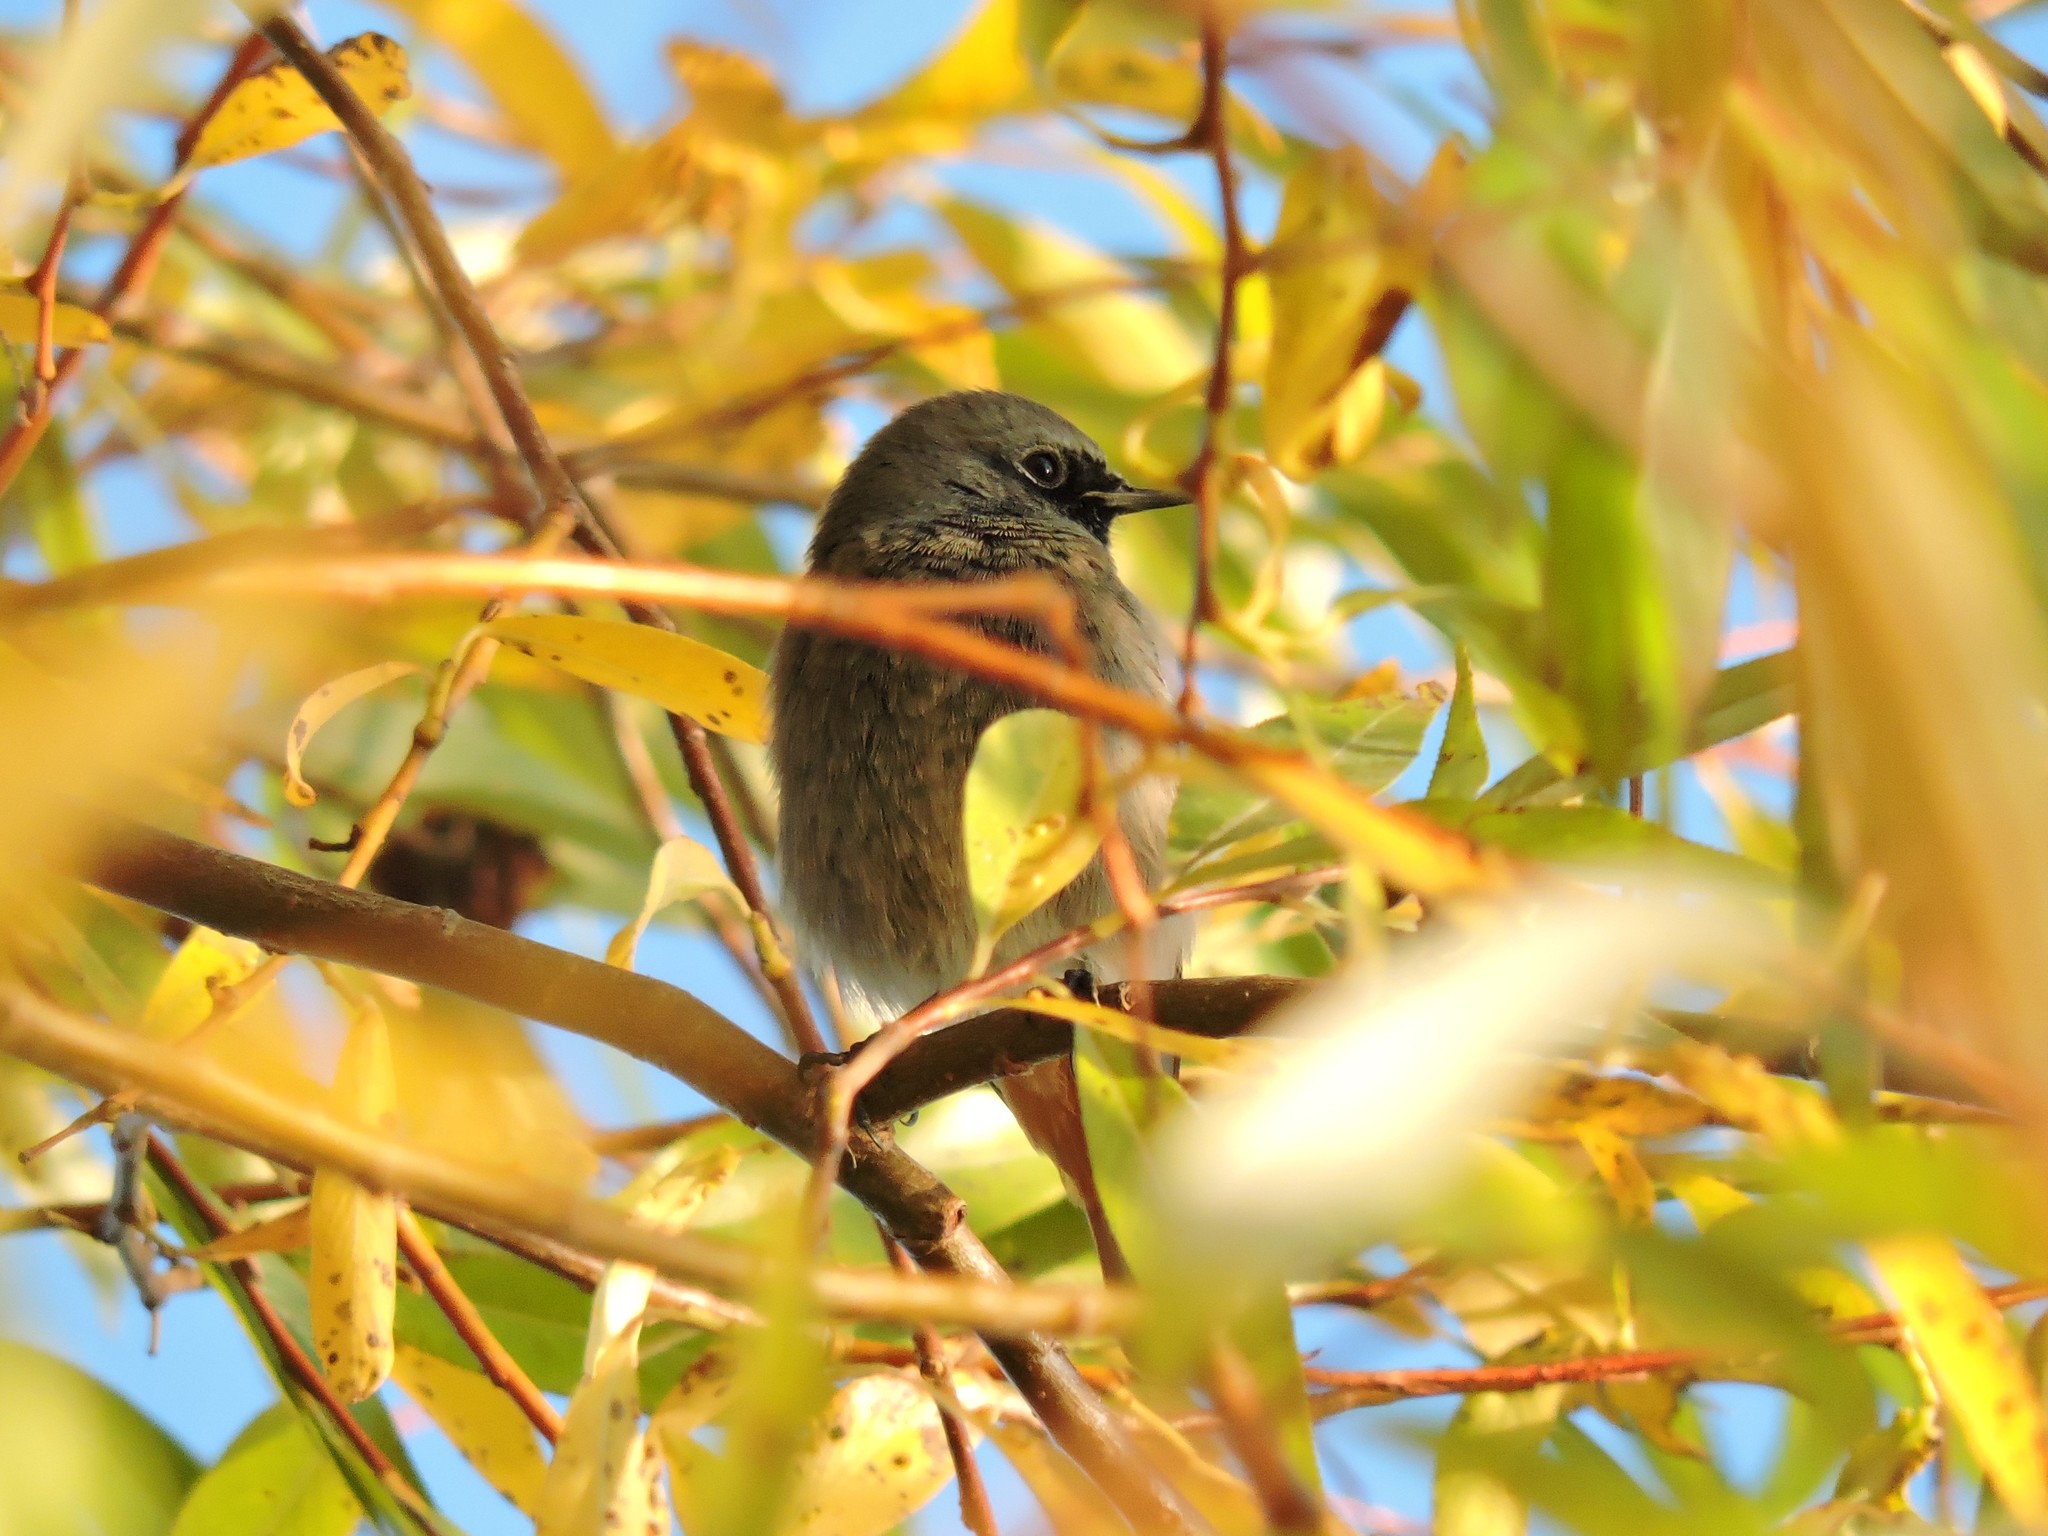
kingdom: Animalia
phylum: Chordata
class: Aves
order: Passeriformes
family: Muscicapidae
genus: Phoenicurus
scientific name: Phoenicurus ochruros
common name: Black redstart
